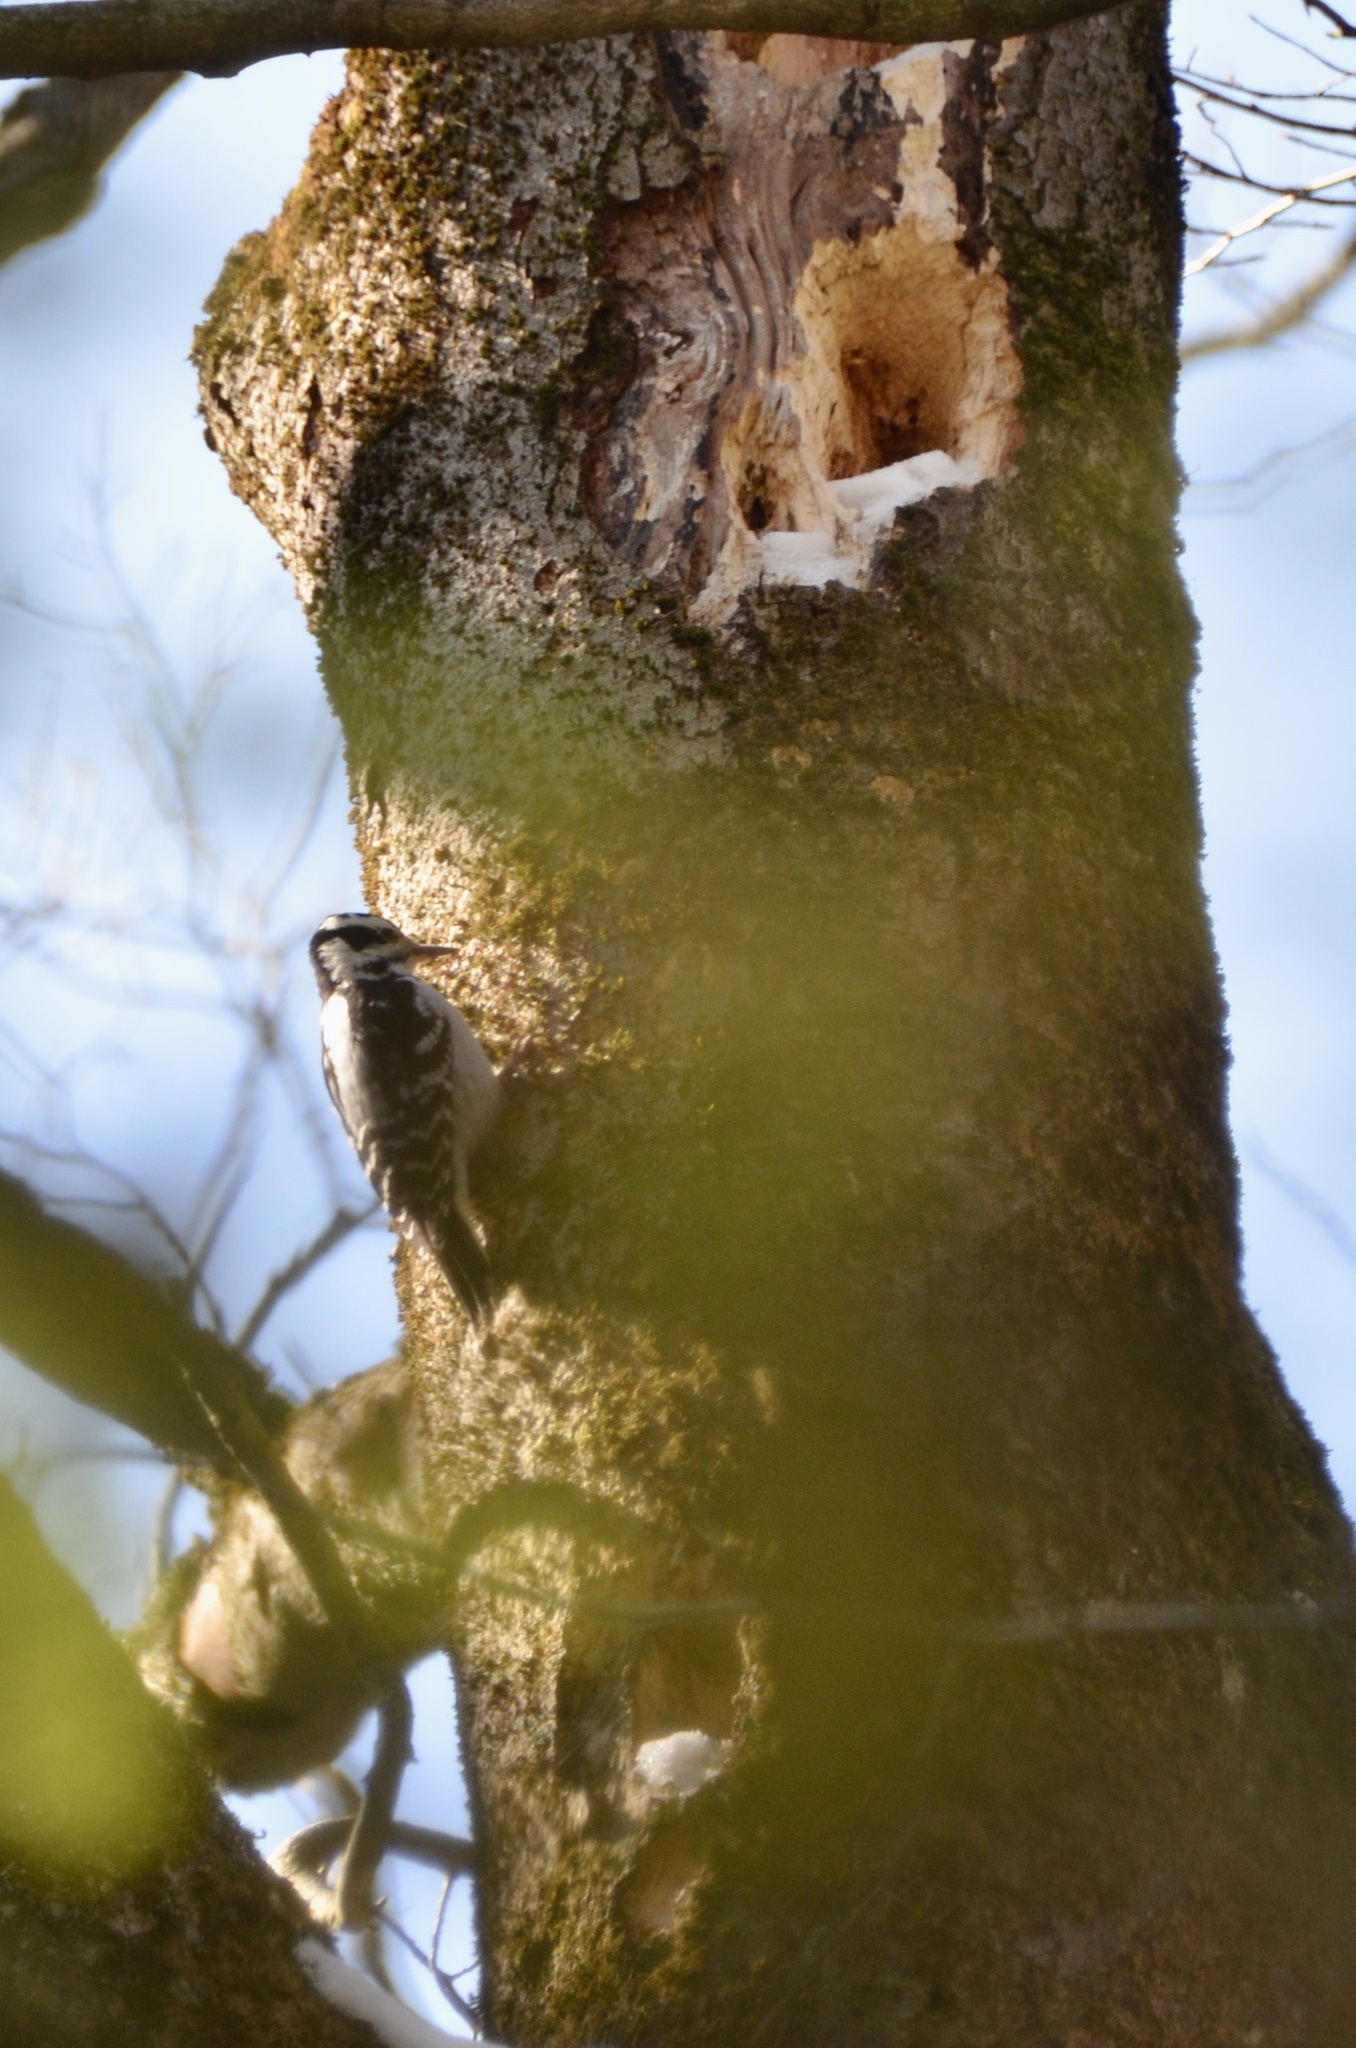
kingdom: Animalia
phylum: Chordata
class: Aves
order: Piciformes
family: Picidae
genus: Leuconotopicus
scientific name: Leuconotopicus villosus
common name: Hairy woodpecker
